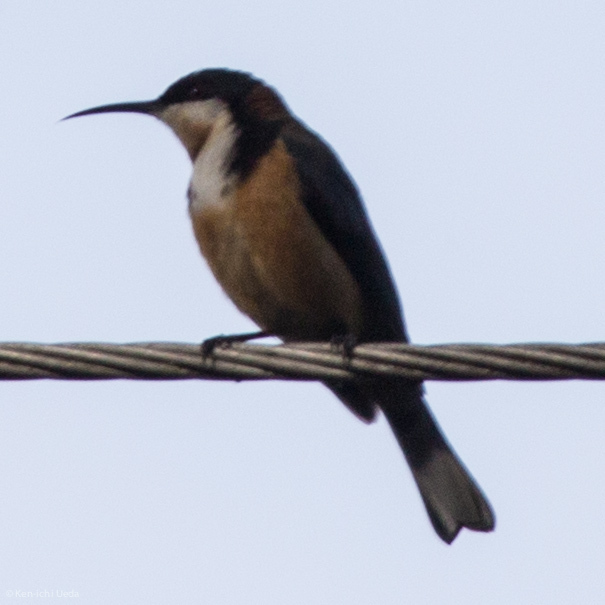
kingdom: Animalia
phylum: Chordata
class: Aves
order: Passeriformes
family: Meliphagidae
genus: Acanthorhynchus
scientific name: Acanthorhynchus tenuirostris
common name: Eastern spinebill
